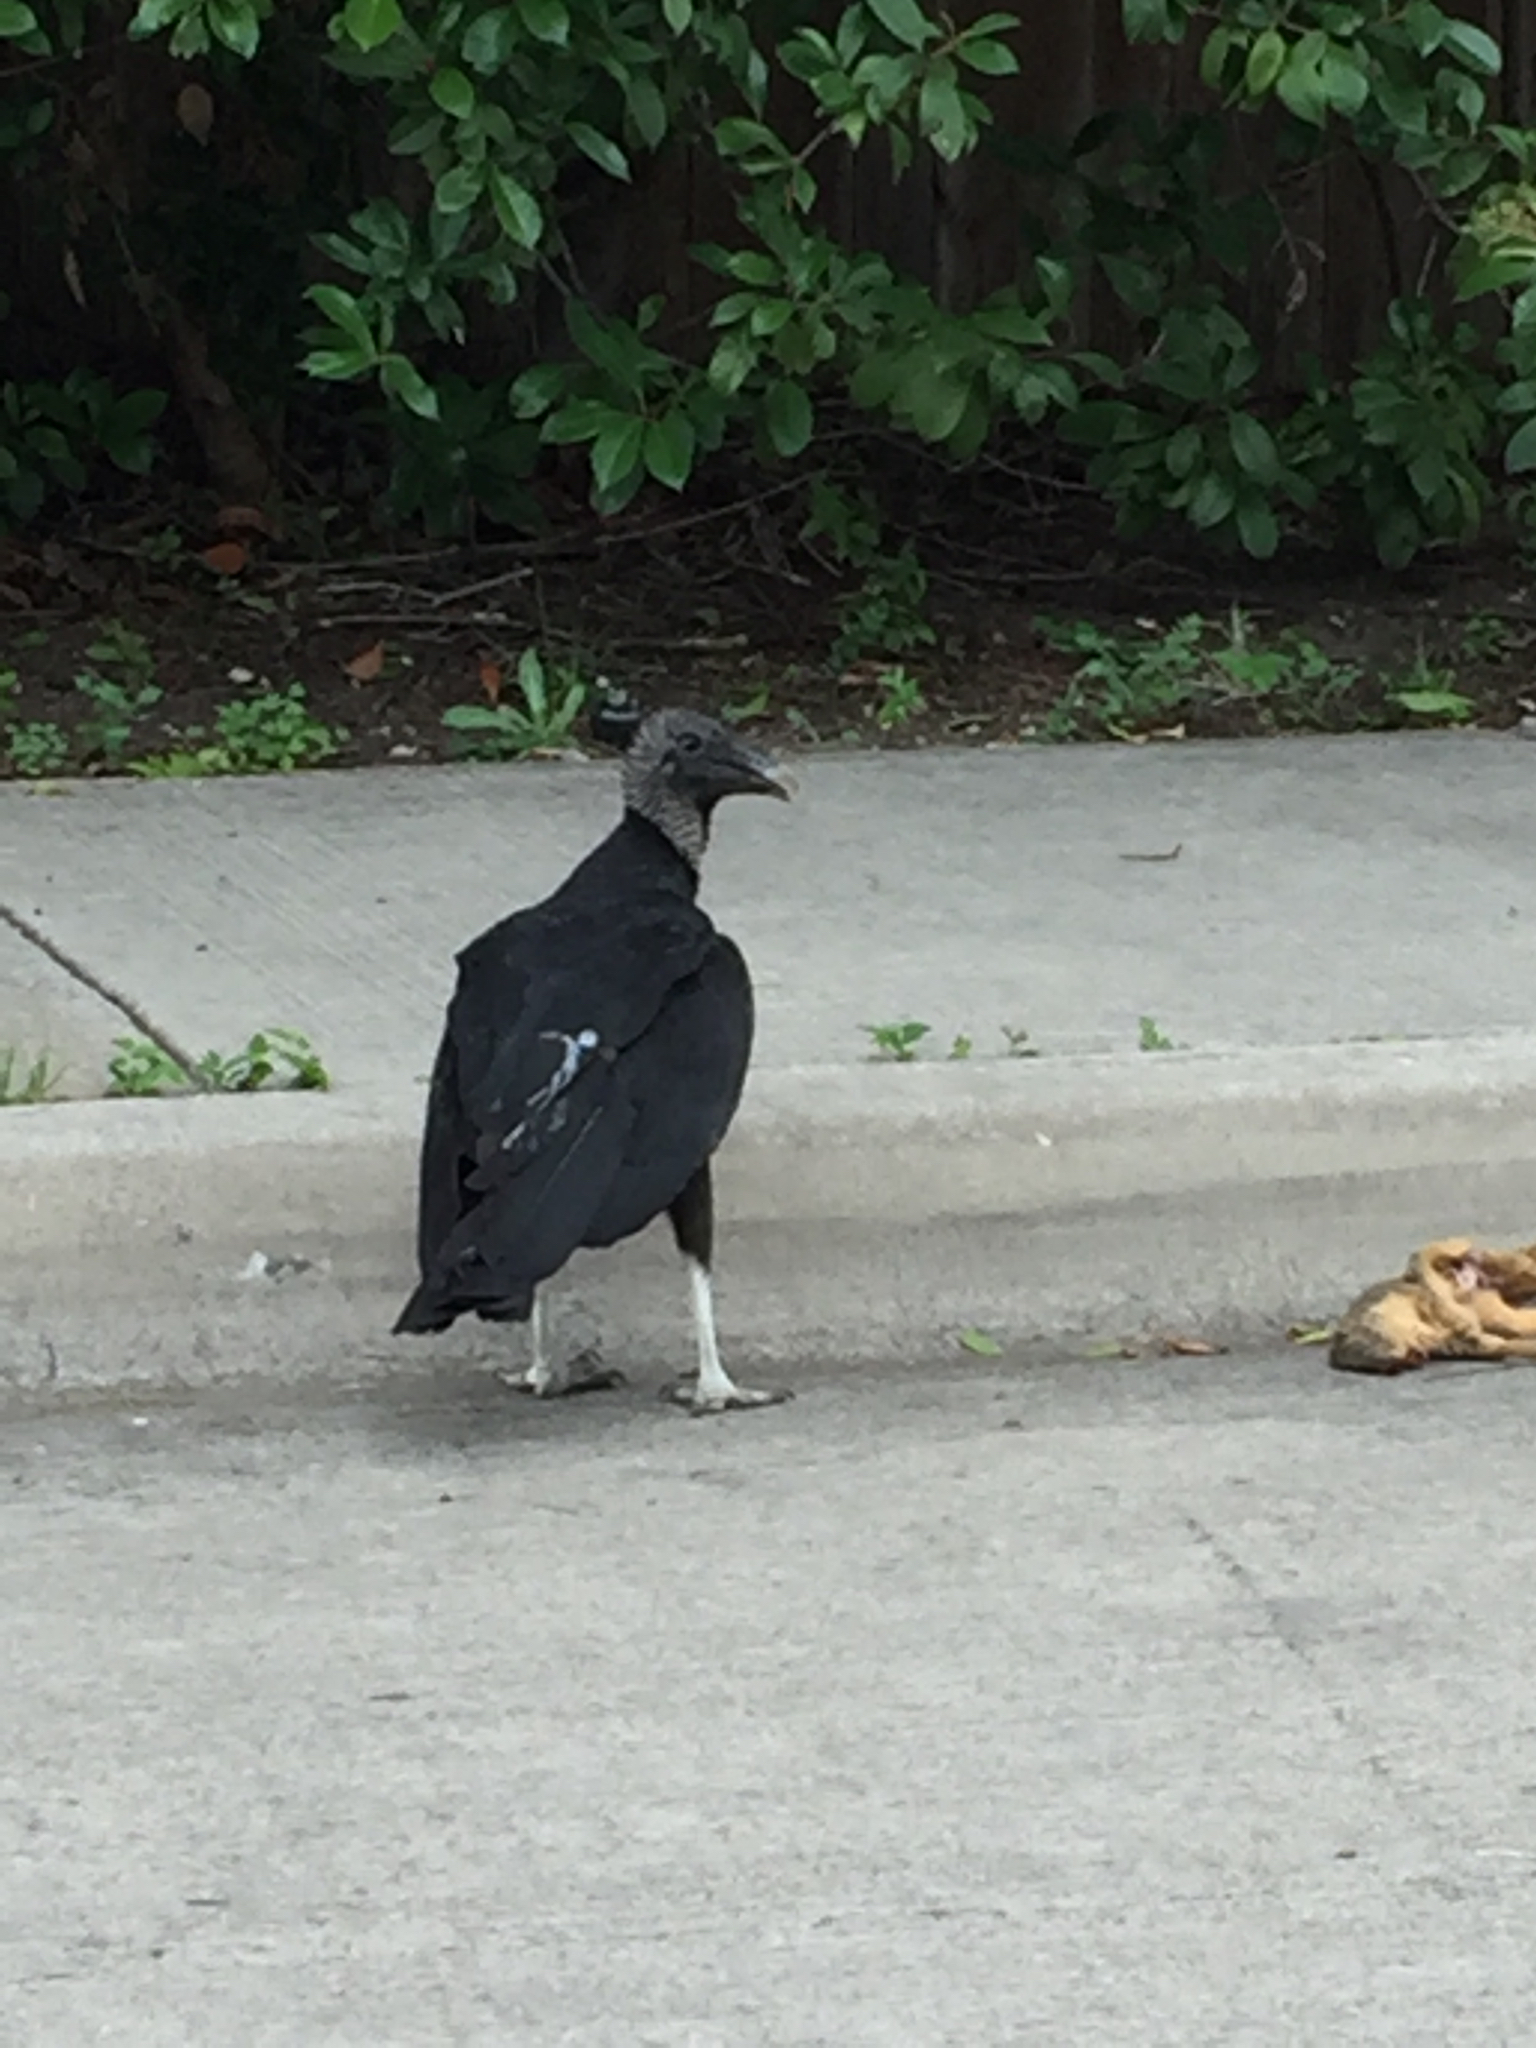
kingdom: Animalia
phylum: Chordata
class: Aves
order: Accipitriformes
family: Cathartidae
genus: Coragyps
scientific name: Coragyps atratus
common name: Black vulture
